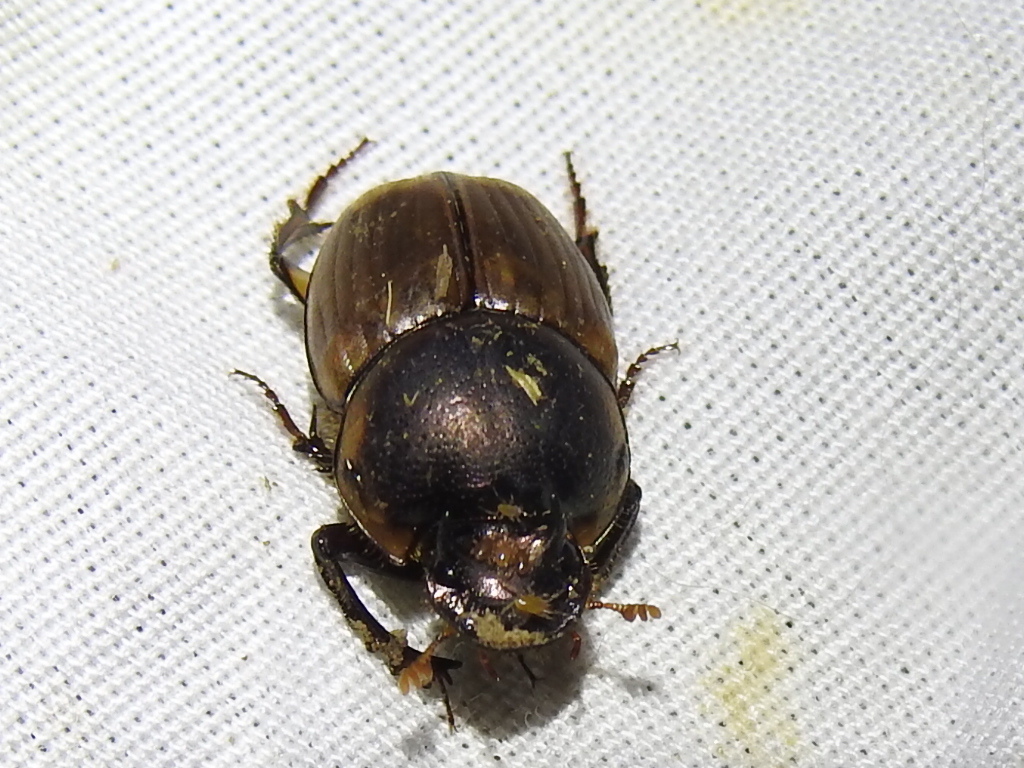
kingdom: Animalia
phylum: Arthropoda
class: Insecta
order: Coleoptera
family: Scarabaeidae
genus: Digitonthophagus
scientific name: Digitonthophagus gazella
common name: Brown dung beetle
